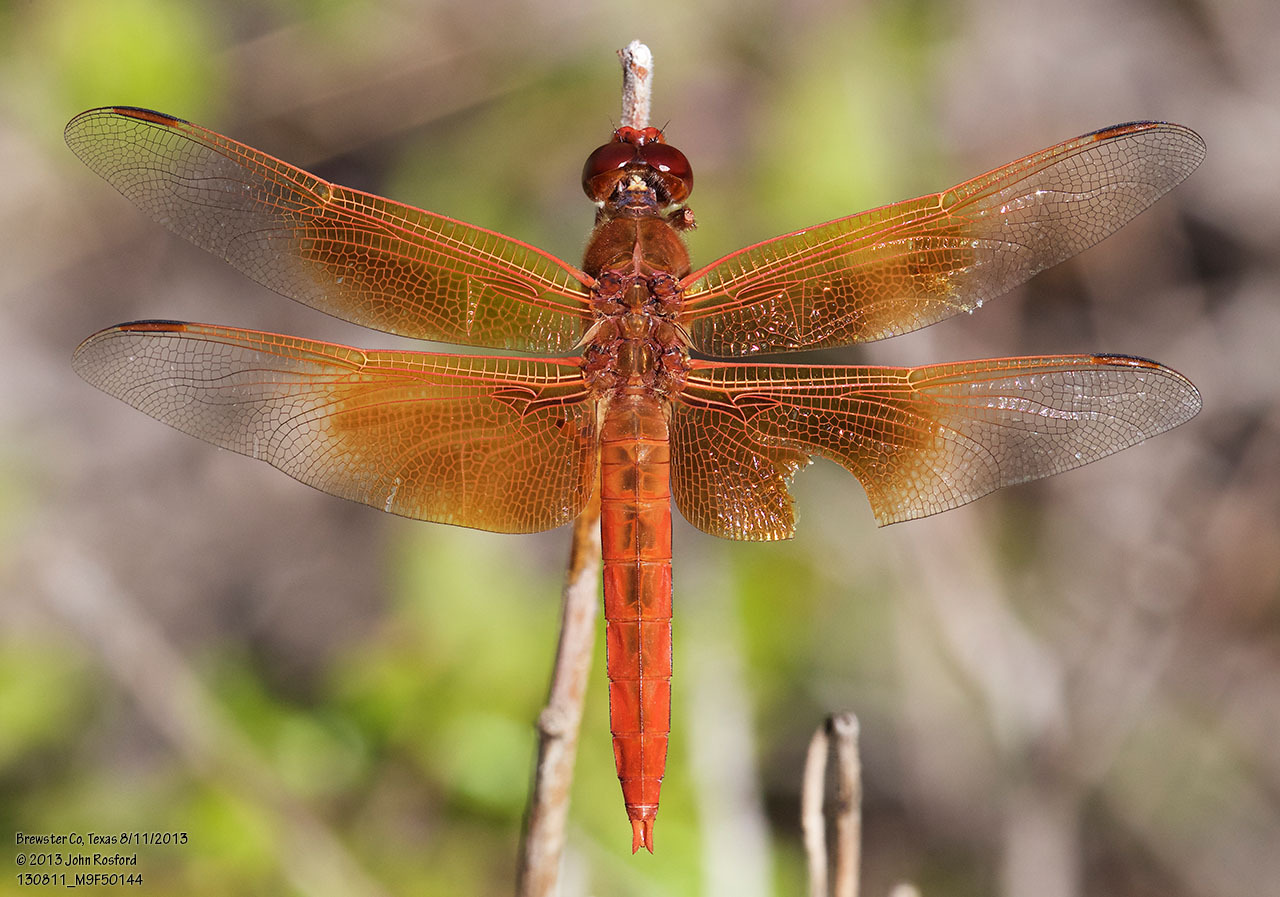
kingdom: Animalia
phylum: Arthropoda
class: Insecta
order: Odonata
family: Libellulidae
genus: Libellula
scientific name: Libellula saturata
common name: Flame skimmer
